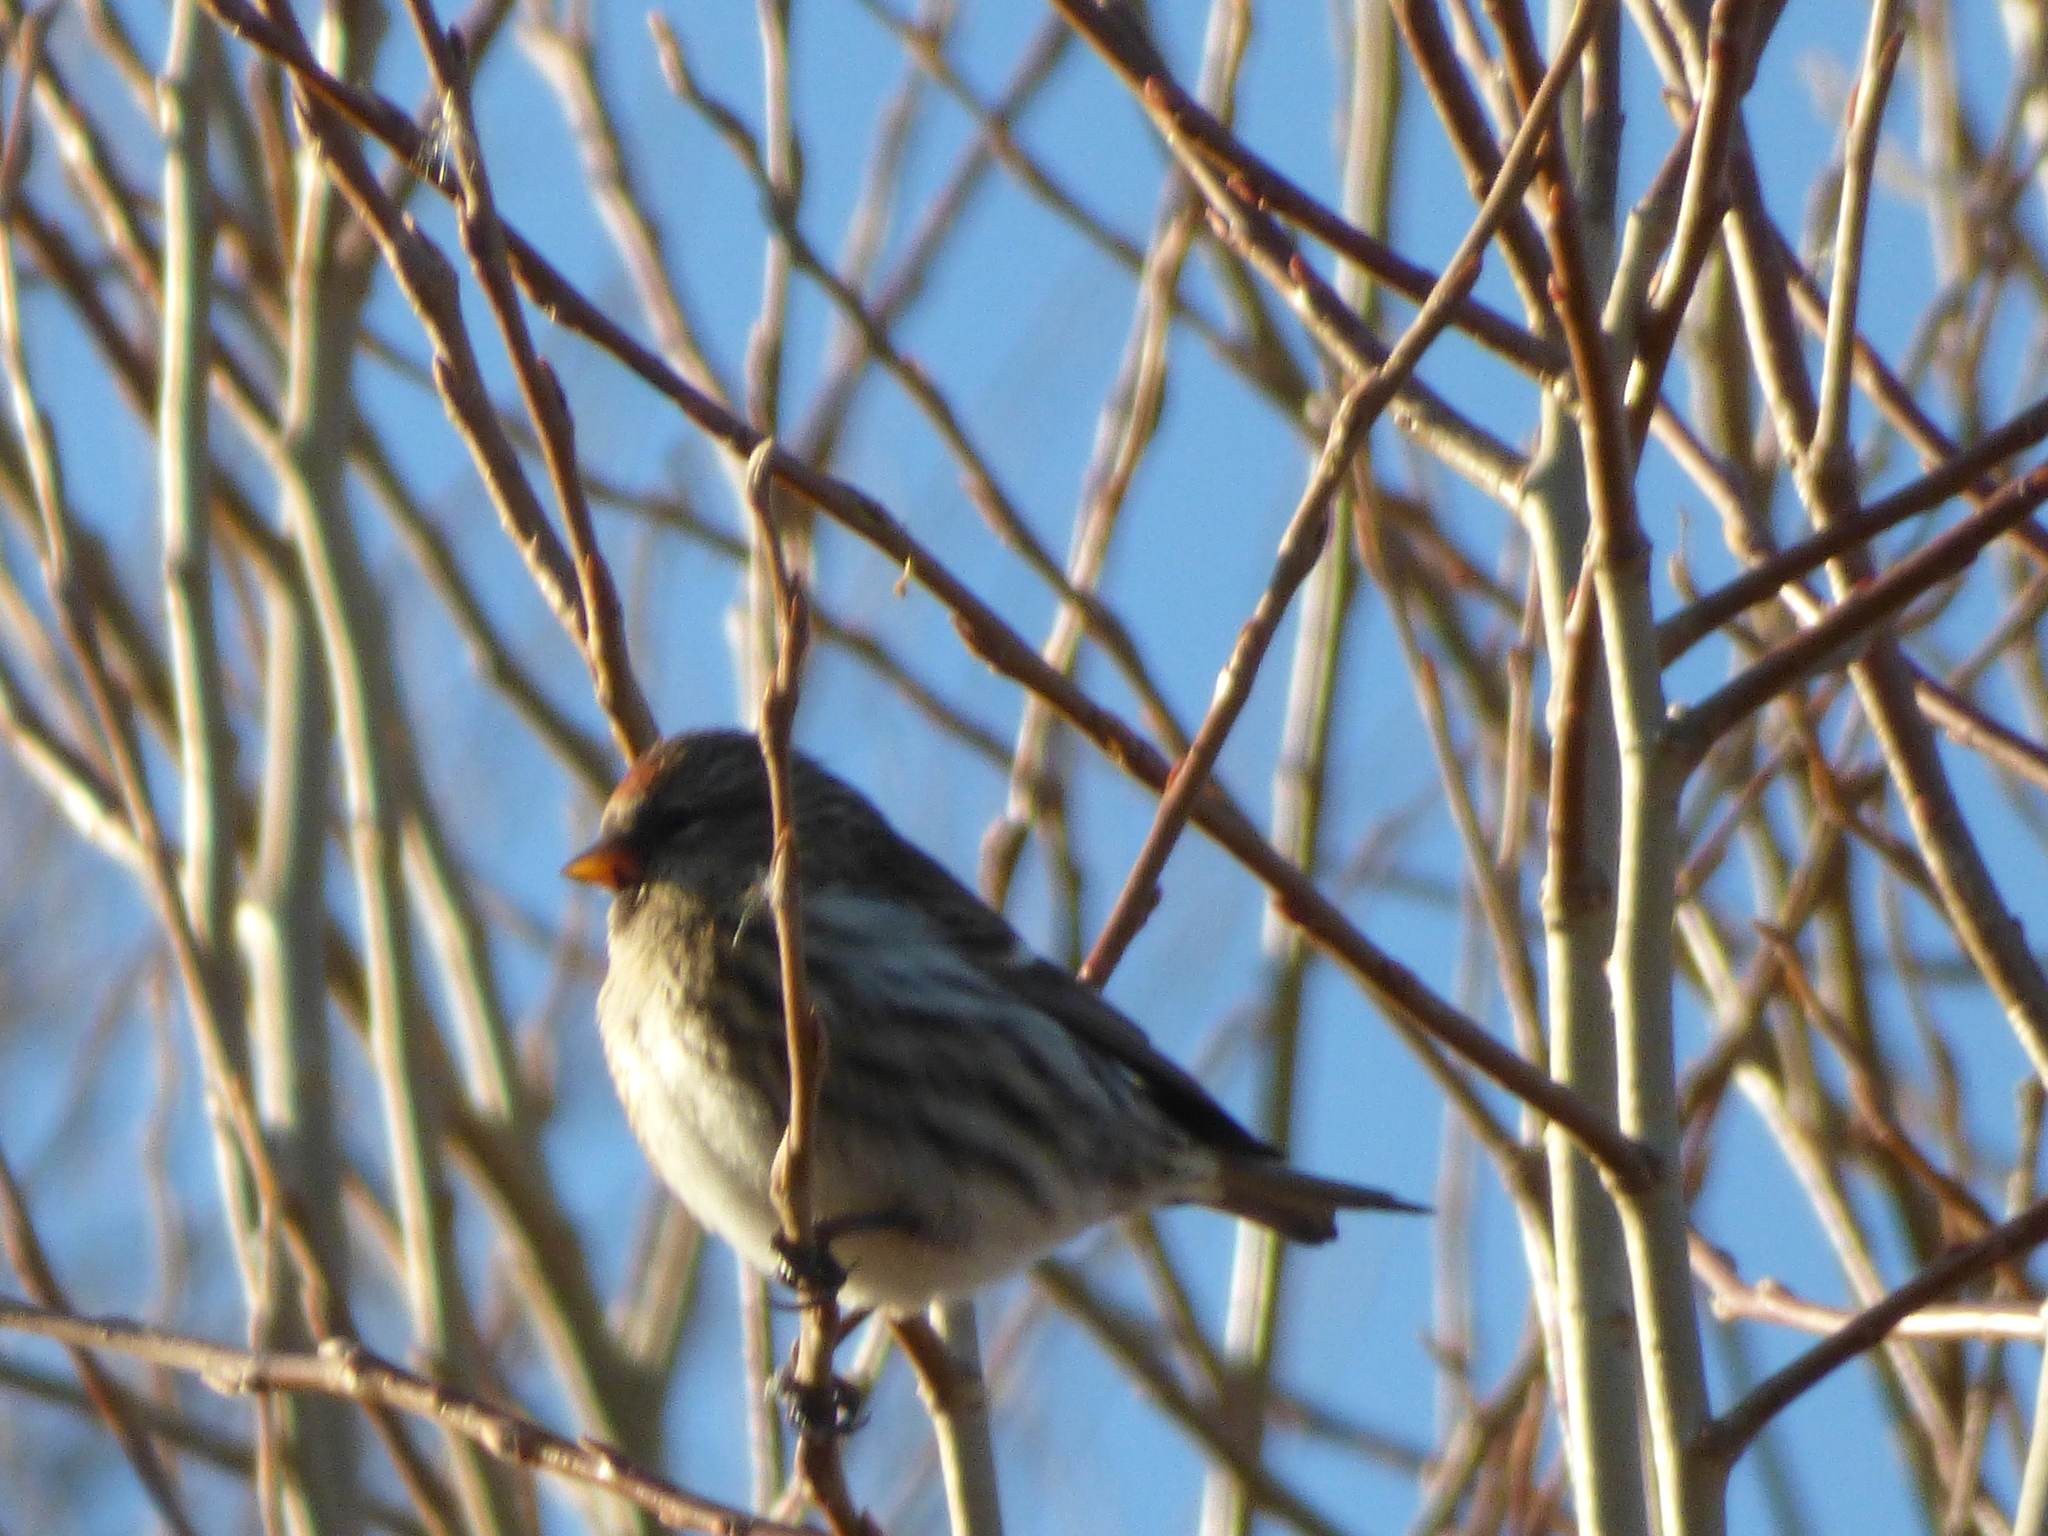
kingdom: Animalia
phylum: Chordata
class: Aves
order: Passeriformes
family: Fringillidae
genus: Acanthis
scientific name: Acanthis flammea
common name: Common redpoll
